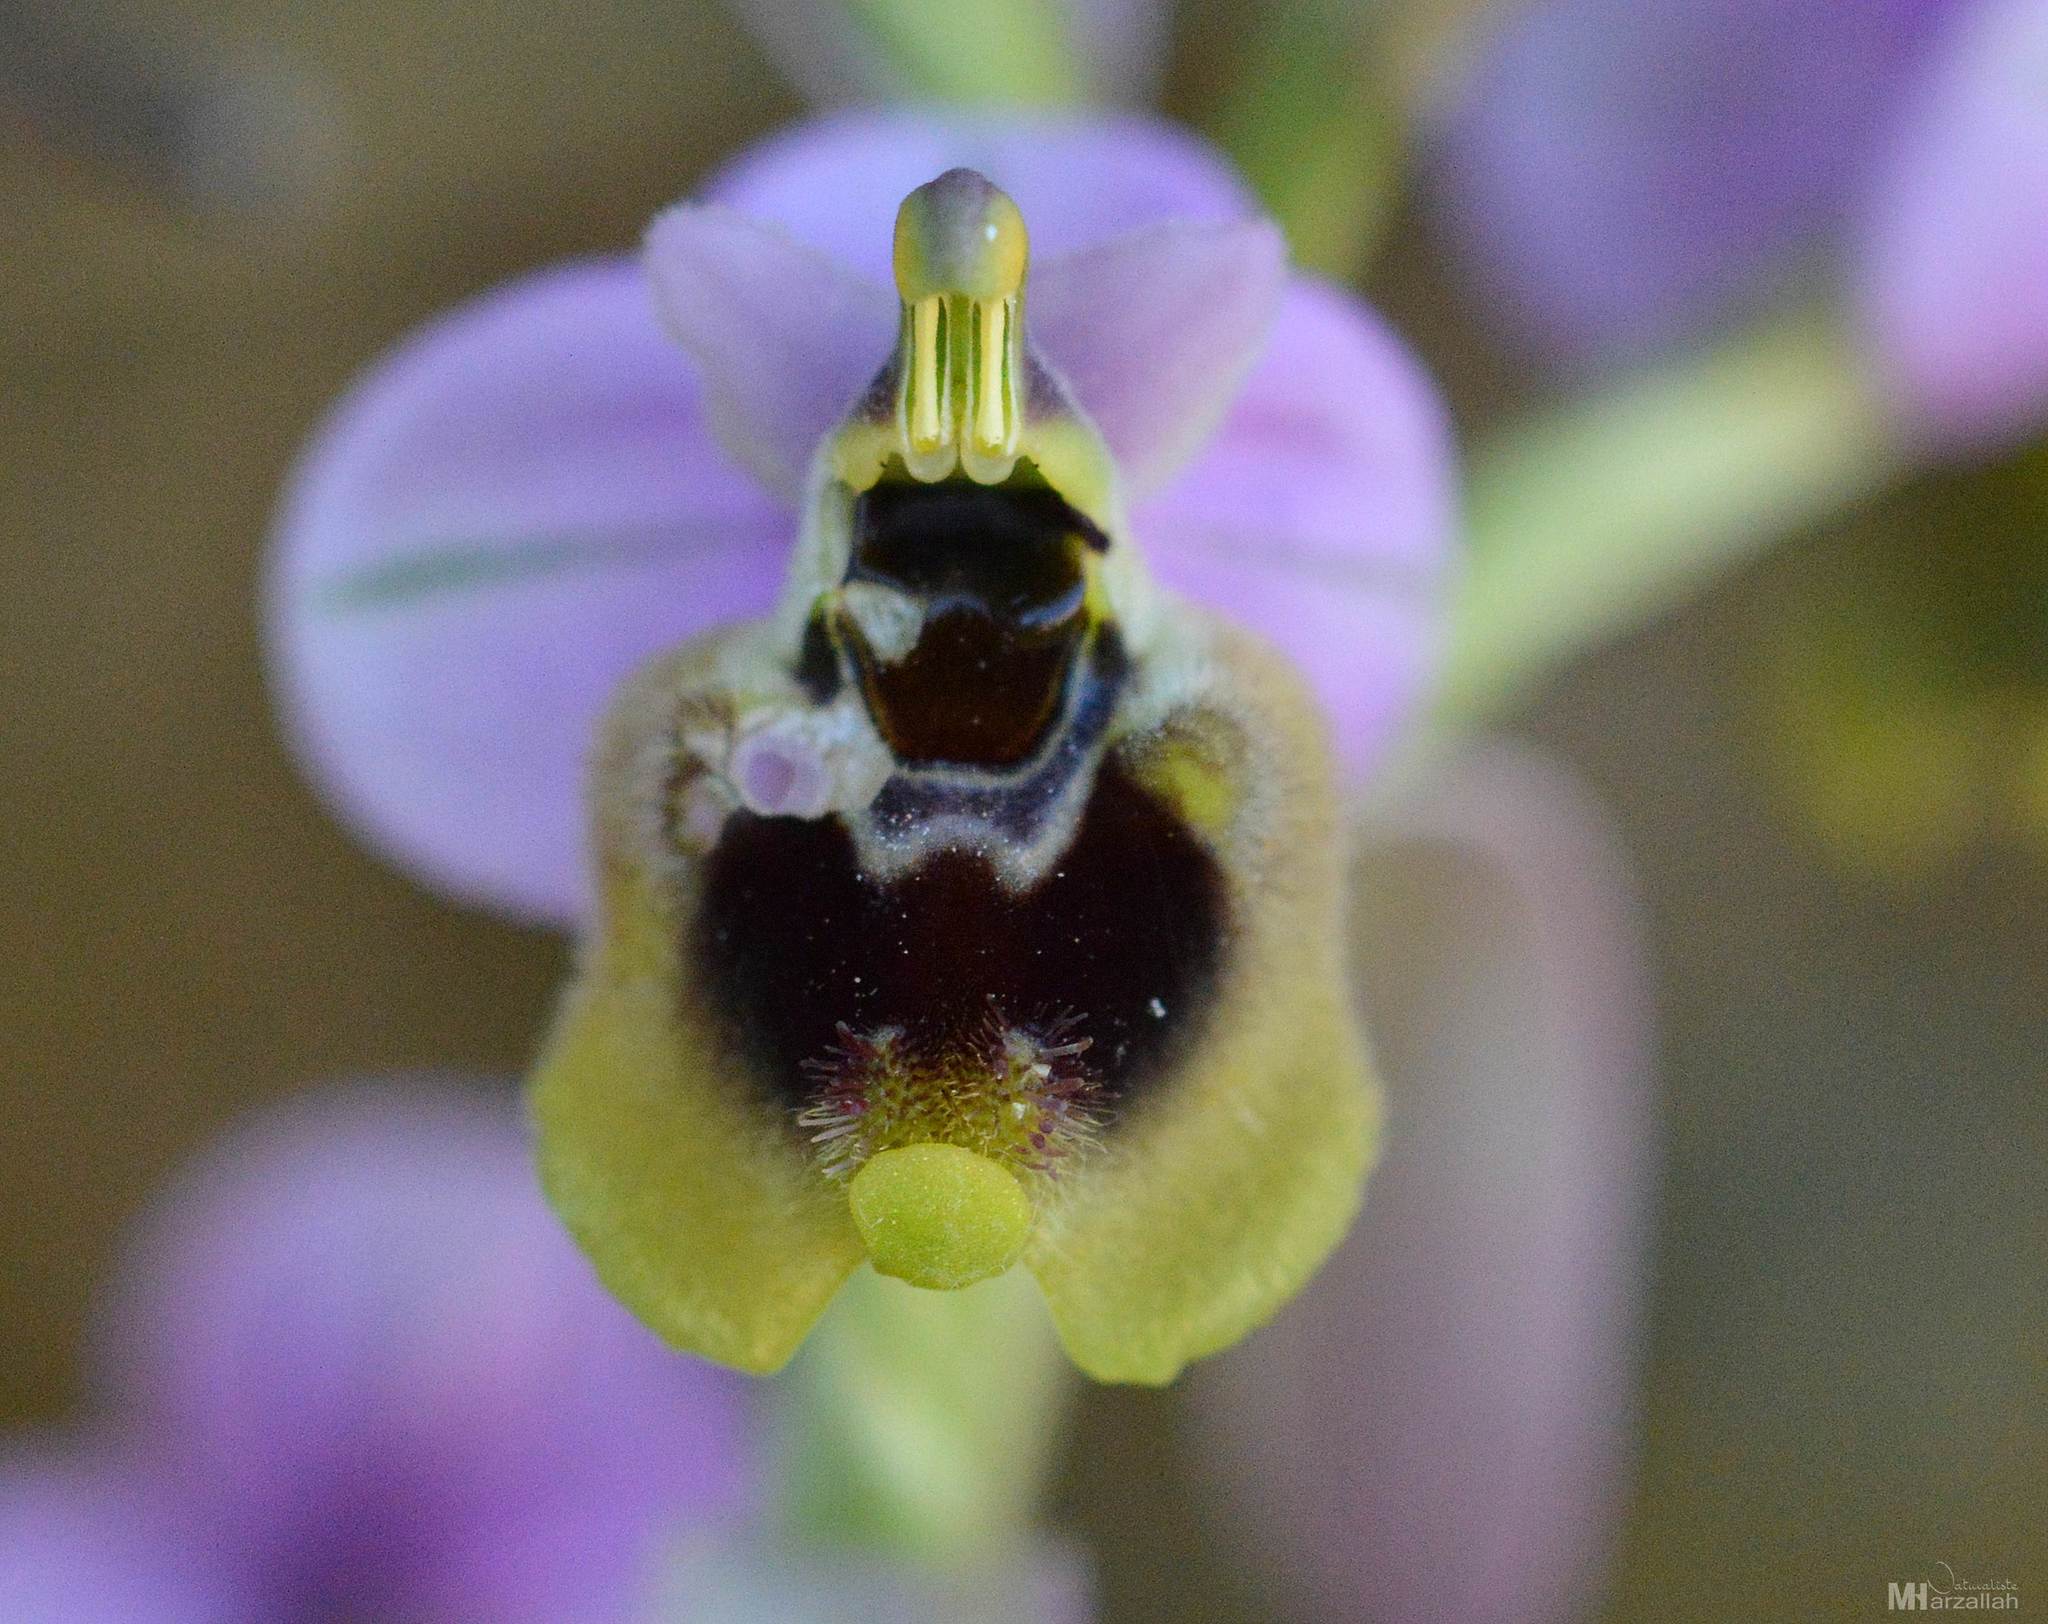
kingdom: Plantae
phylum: Tracheophyta
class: Liliopsida
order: Asparagales
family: Orchidaceae
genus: Ophrys
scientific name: Ophrys tenthredinifera
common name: Sawfly orchid
